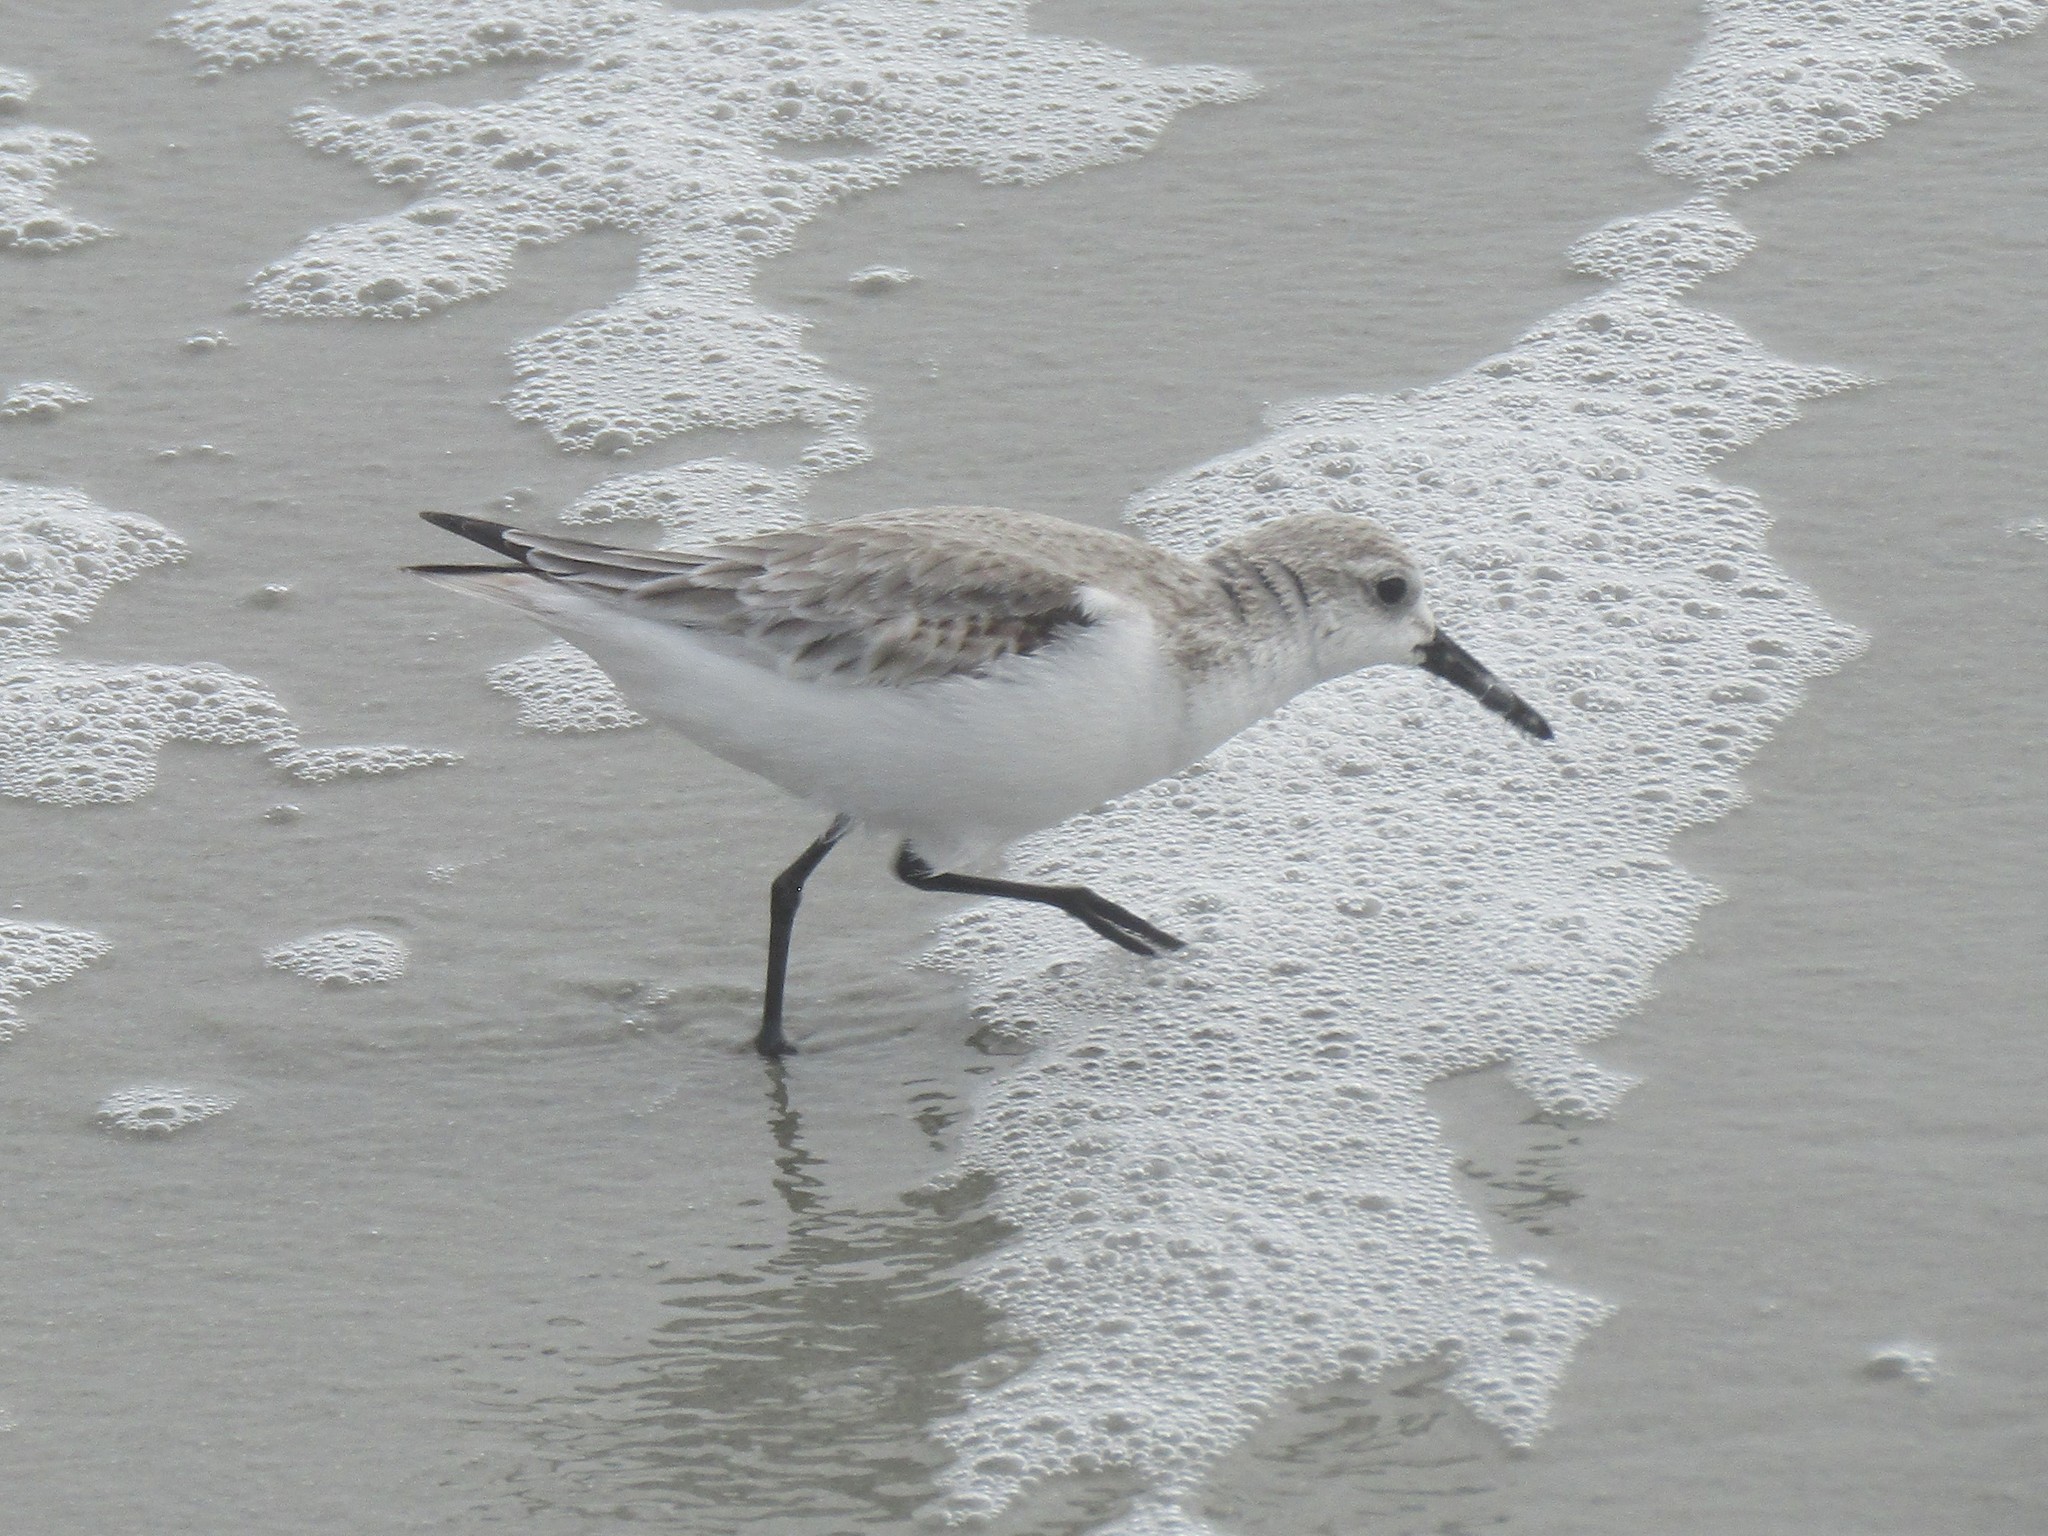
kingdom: Animalia
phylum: Chordata
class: Aves
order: Charadriiformes
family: Scolopacidae
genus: Calidris
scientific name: Calidris alba
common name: Sanderling
